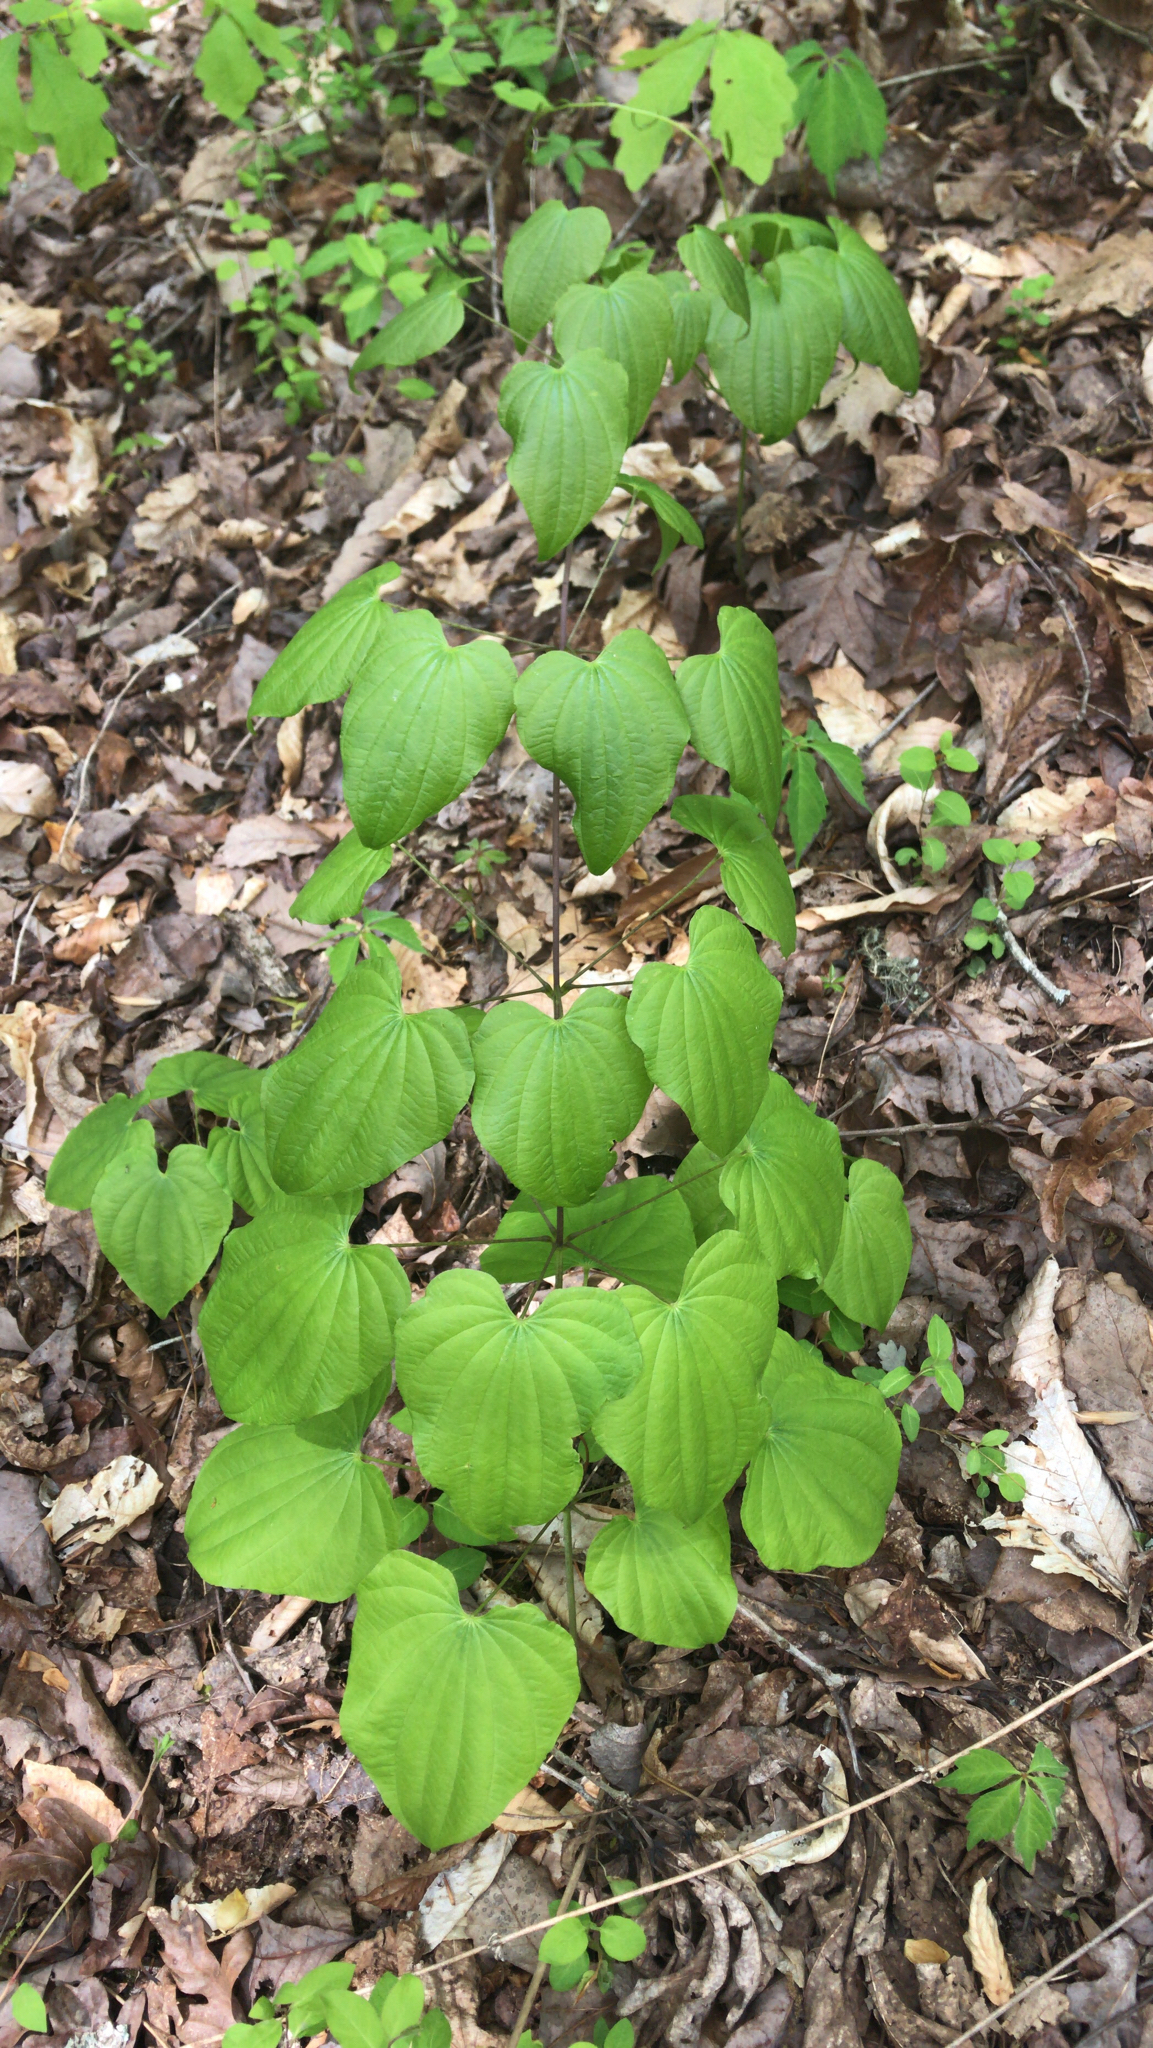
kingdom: Plantae
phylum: Tracheophyta
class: Liliopsida
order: Dioscoreales
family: Dioscoreaceae
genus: Dioscorea
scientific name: Dioscorea villosa
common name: Wild yam
